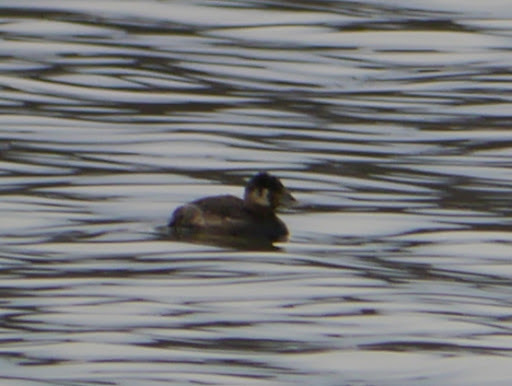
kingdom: Animalia
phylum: Chordata
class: Aves
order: Anseriformes
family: Anatidae
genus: Oxyura
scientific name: Oxyura jamaicensis
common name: Ruddy duck
